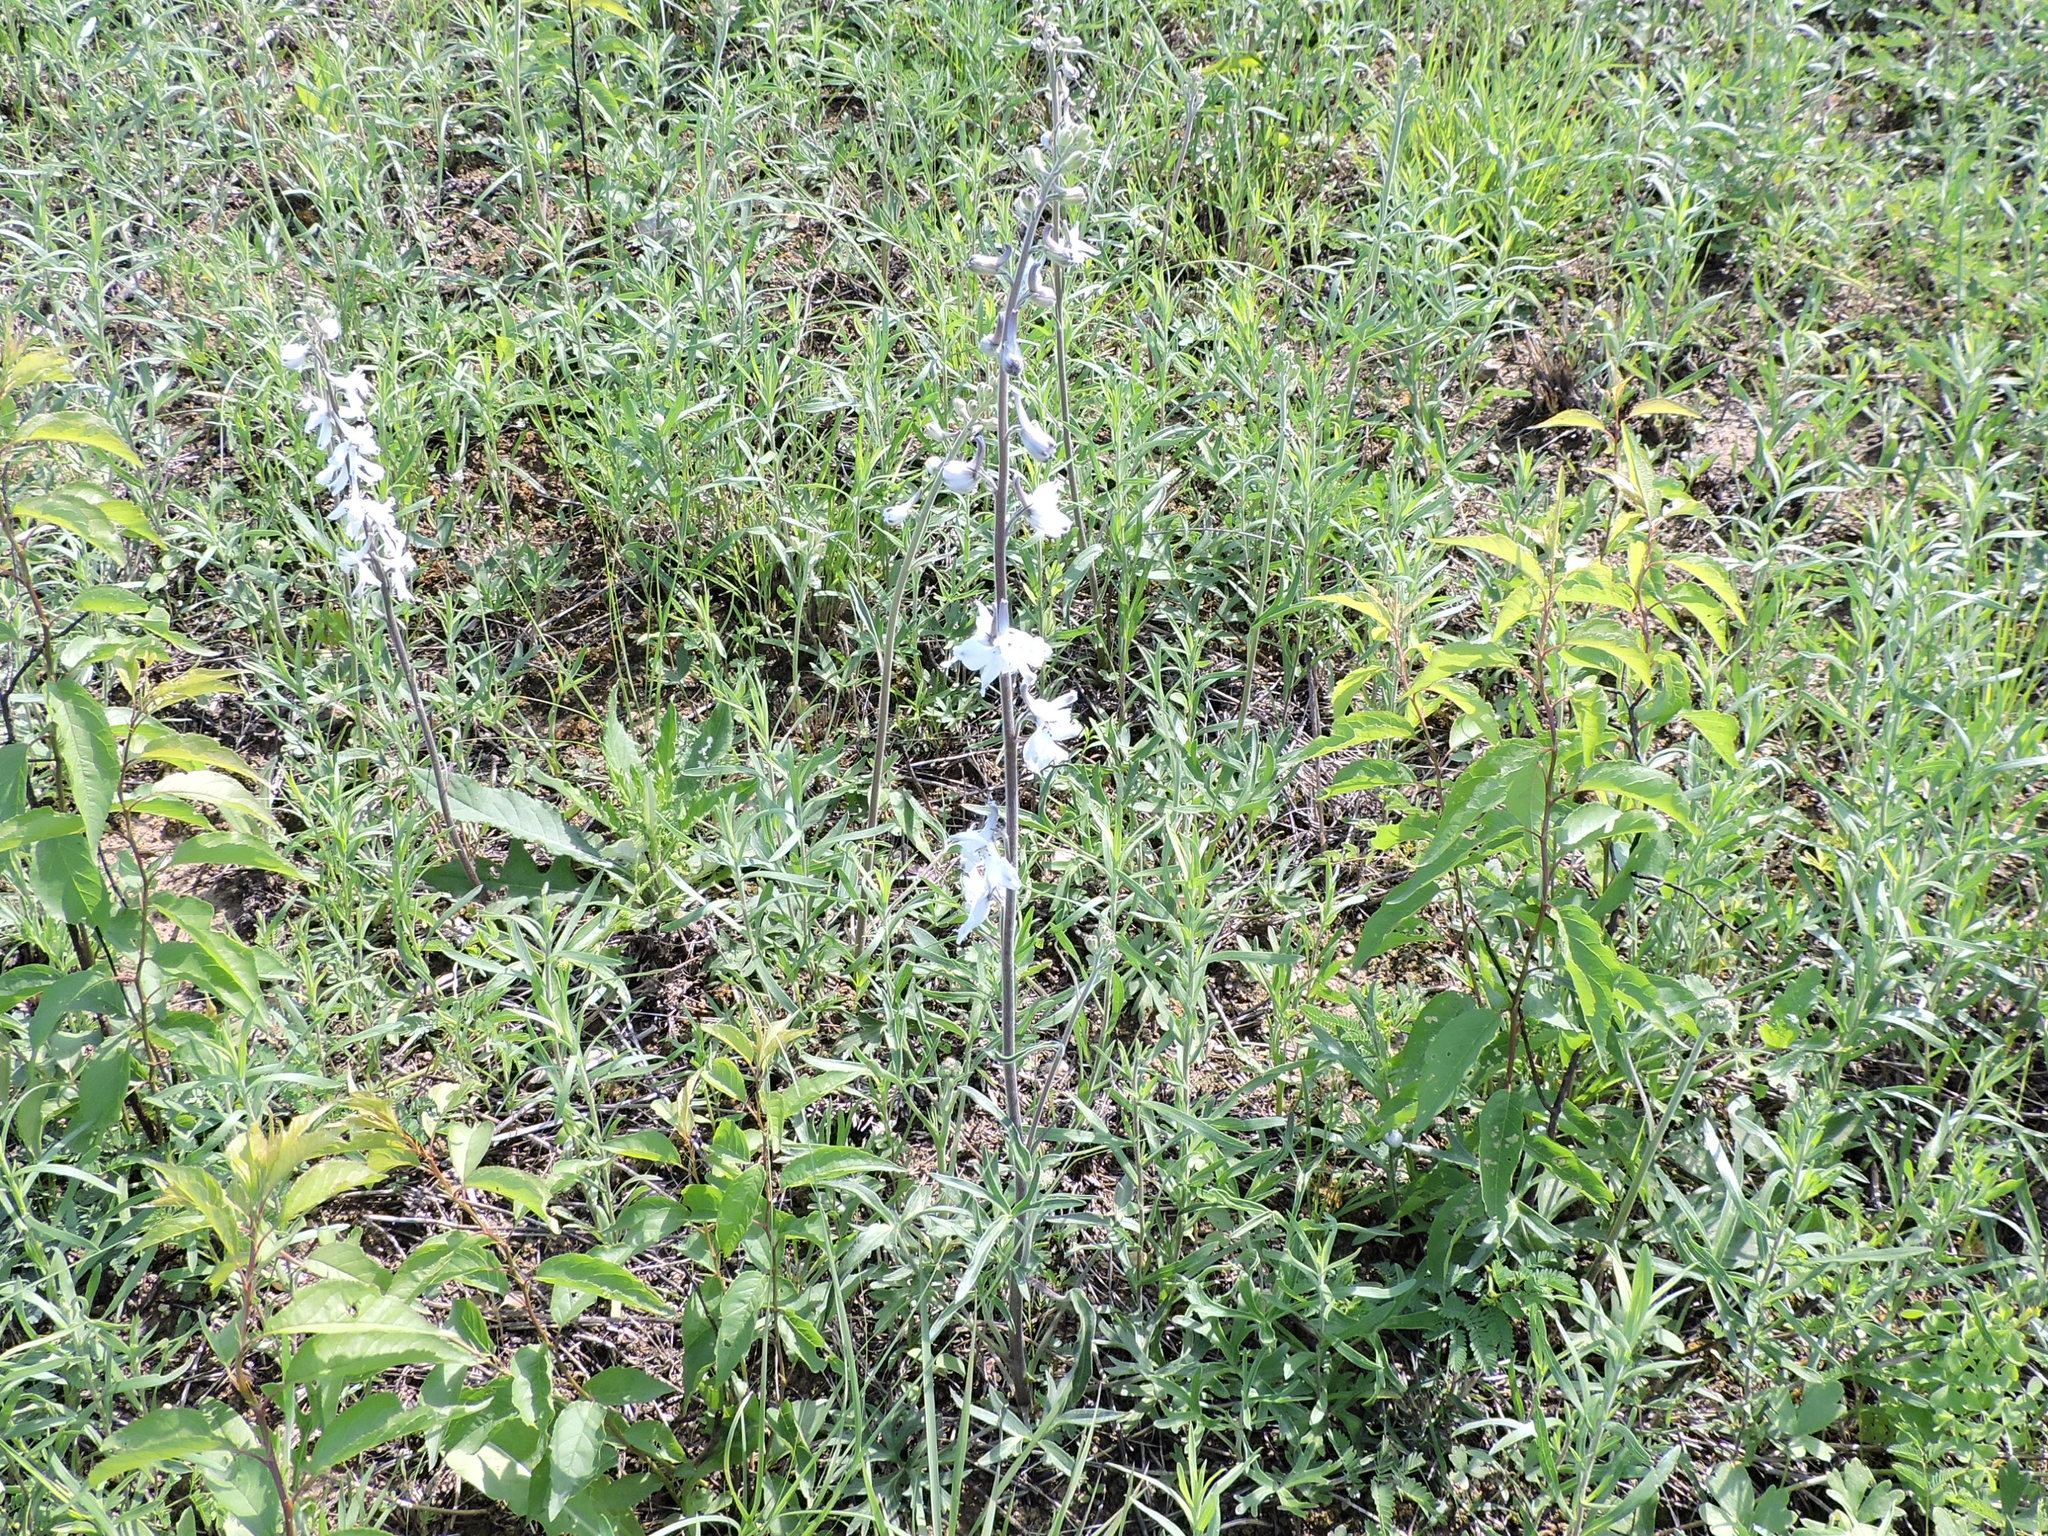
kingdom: Plantae
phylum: Tracheophyta
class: Magnoliopsida
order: Ranunculales
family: Ranunculaceae
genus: Delphinium
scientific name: Delphinium carolinianum
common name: Carolina larkspur
